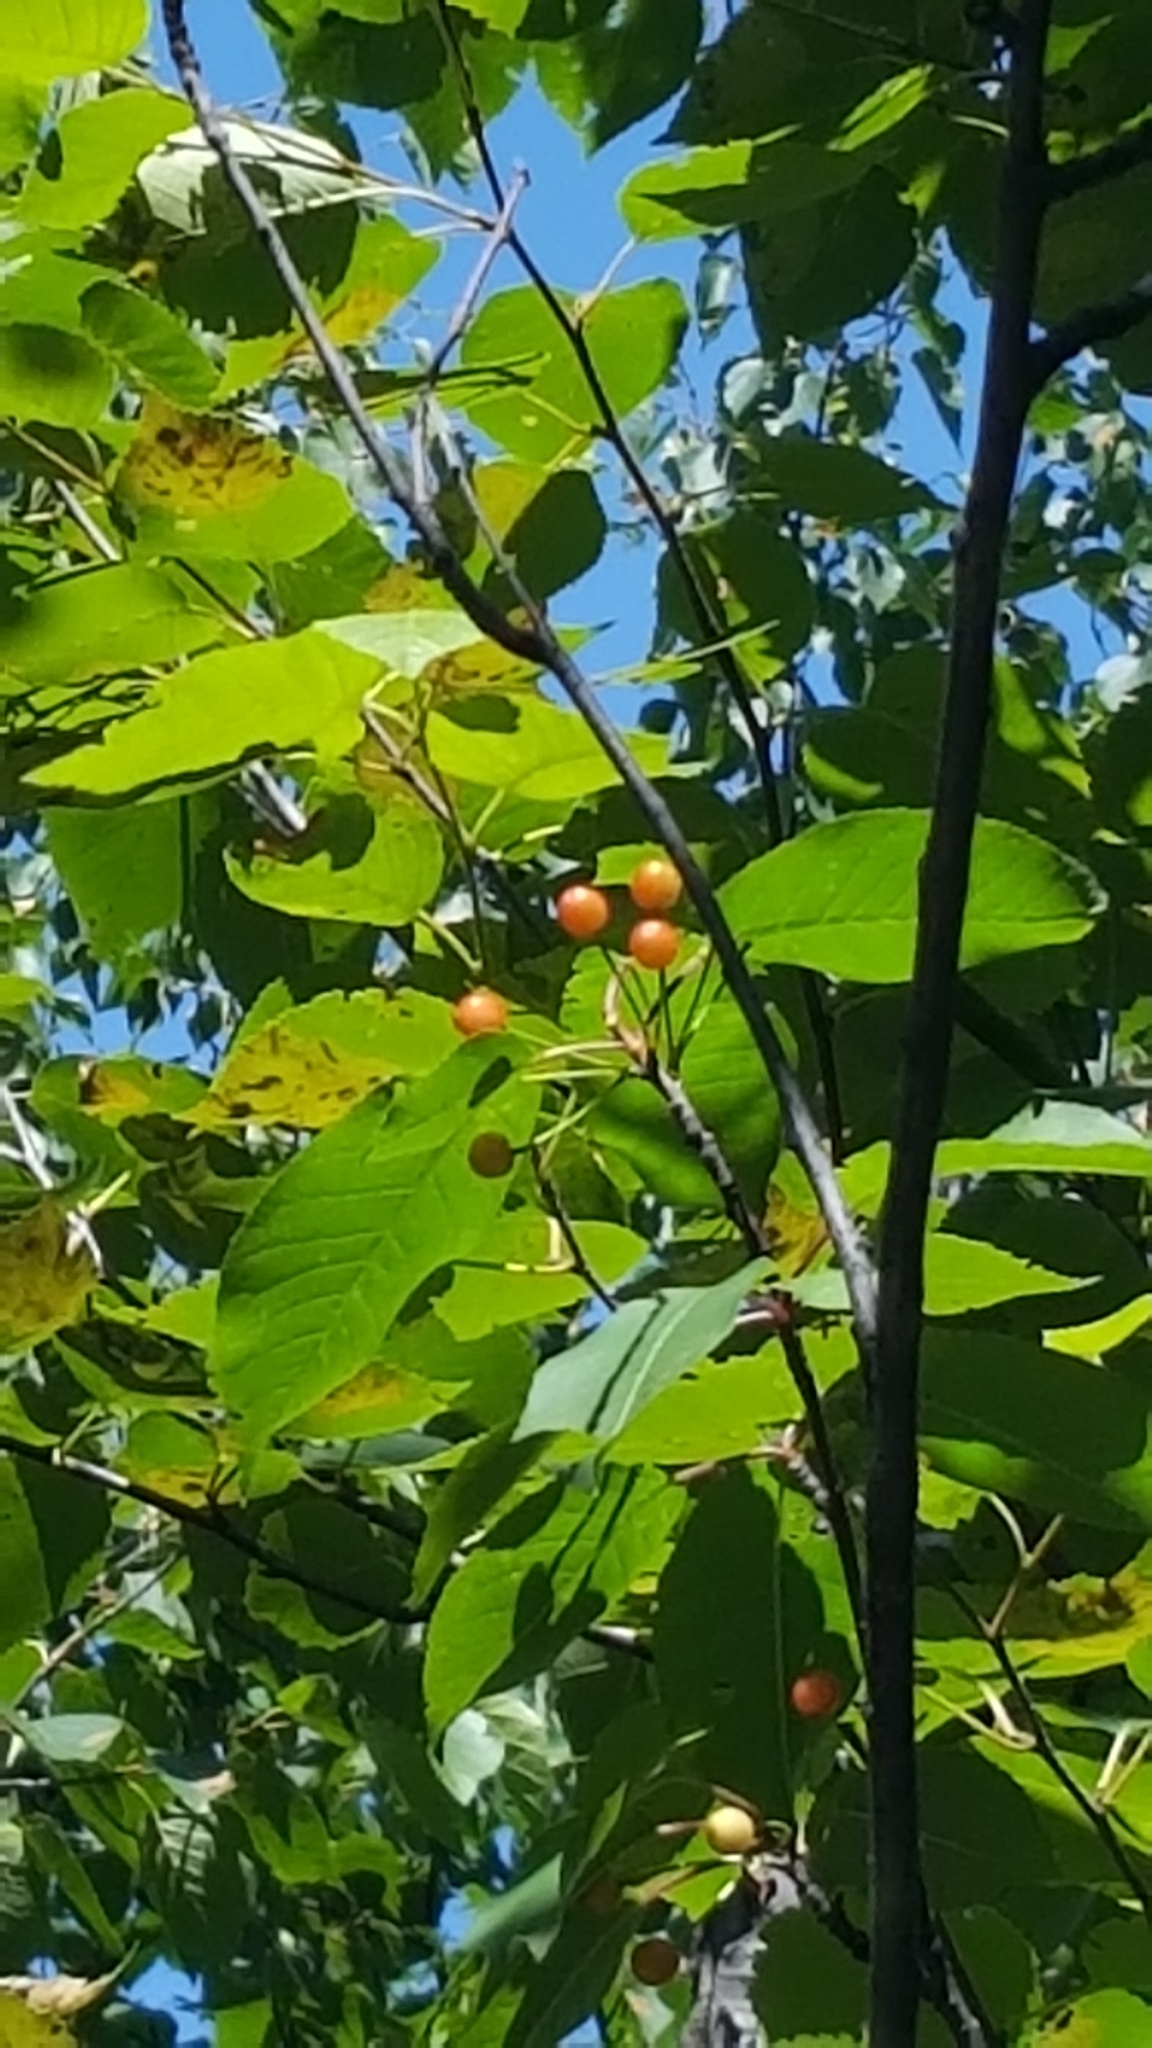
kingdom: Plantae
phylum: Tracheophyta
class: Magnoliopsida
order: Rosales
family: Rosaceae
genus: Prunus
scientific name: Prunus pensylvanica
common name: Pin cherry
